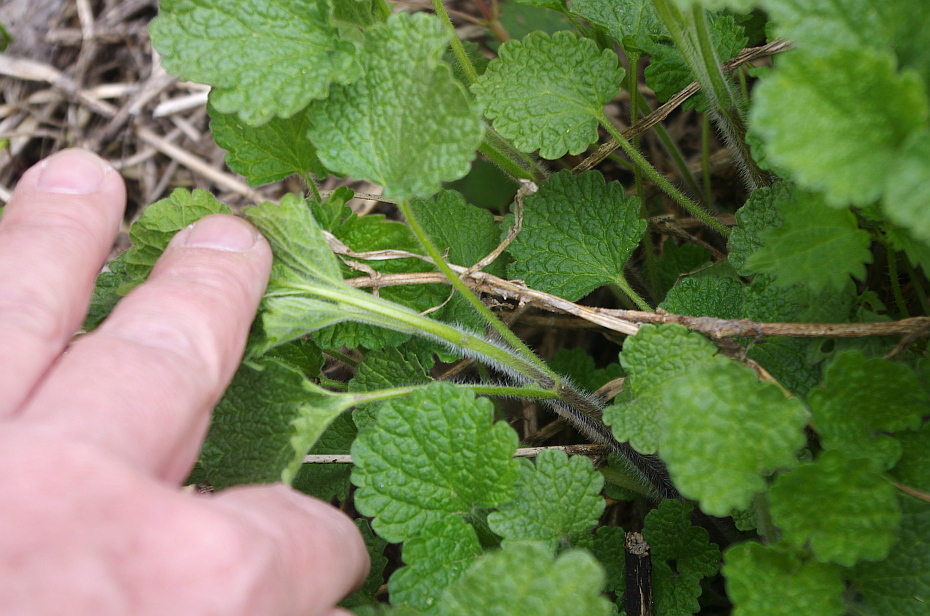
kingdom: Plantae
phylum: Tracheophyta
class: Magnoliopsida
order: Lamiales
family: Lamiaceae
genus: Ballota
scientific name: Ballota nigra
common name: Black horehound
